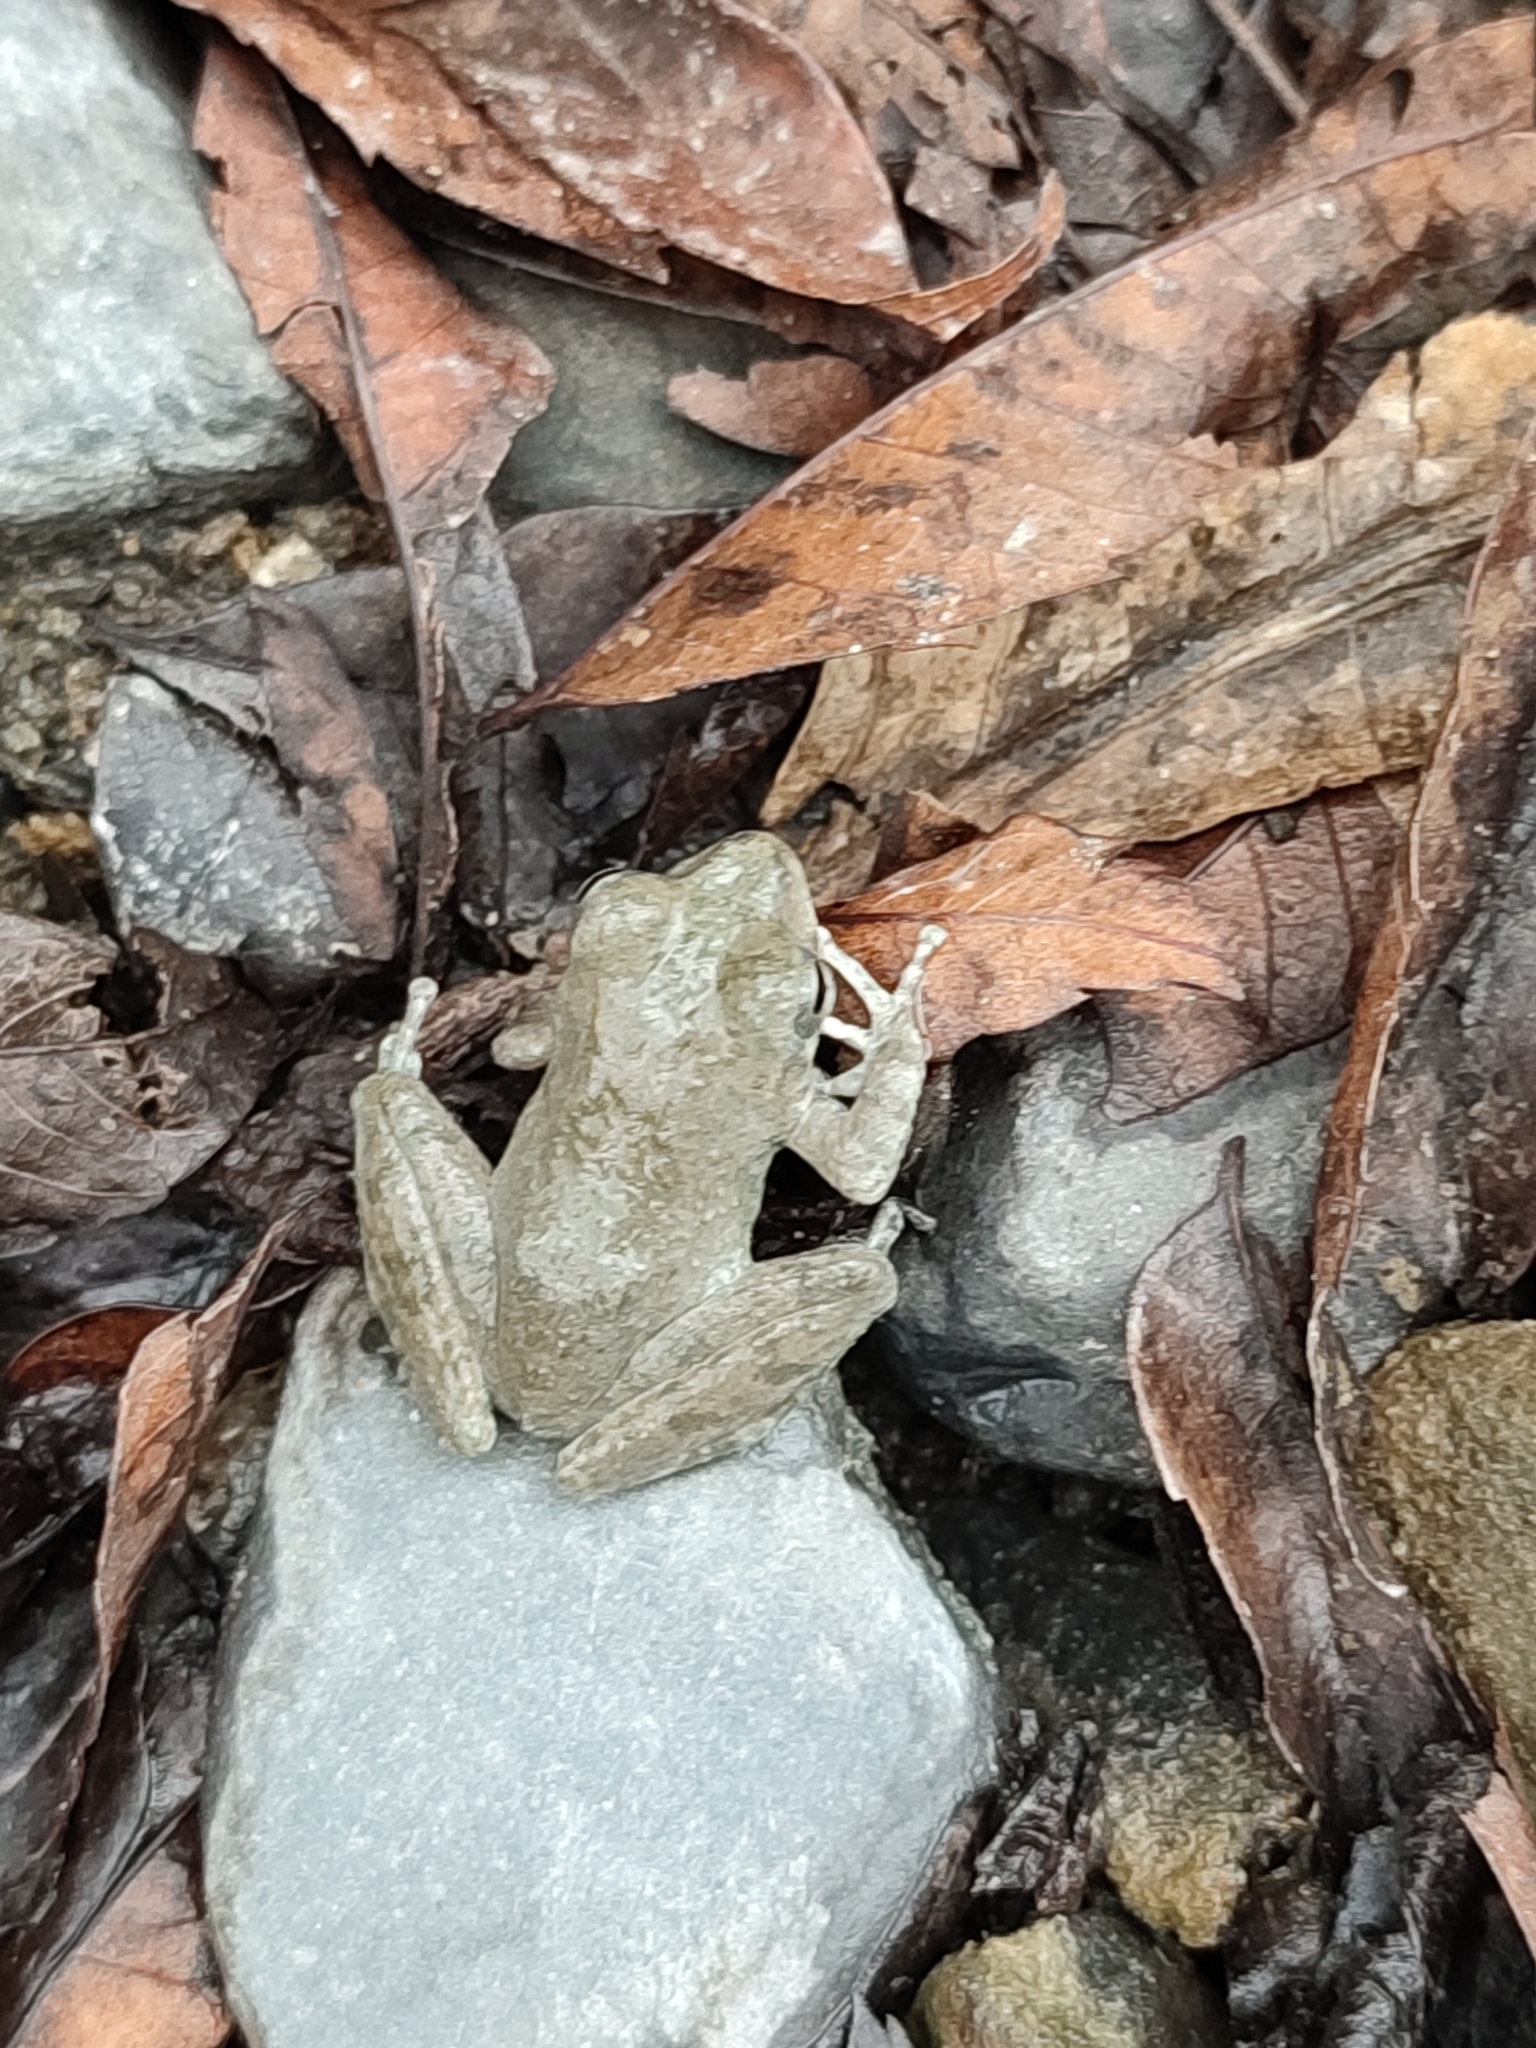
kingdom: Animalia
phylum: Chordata
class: Amphibia
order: Anura
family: Rhacophoridae
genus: Buergeria
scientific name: Buergeria otai
